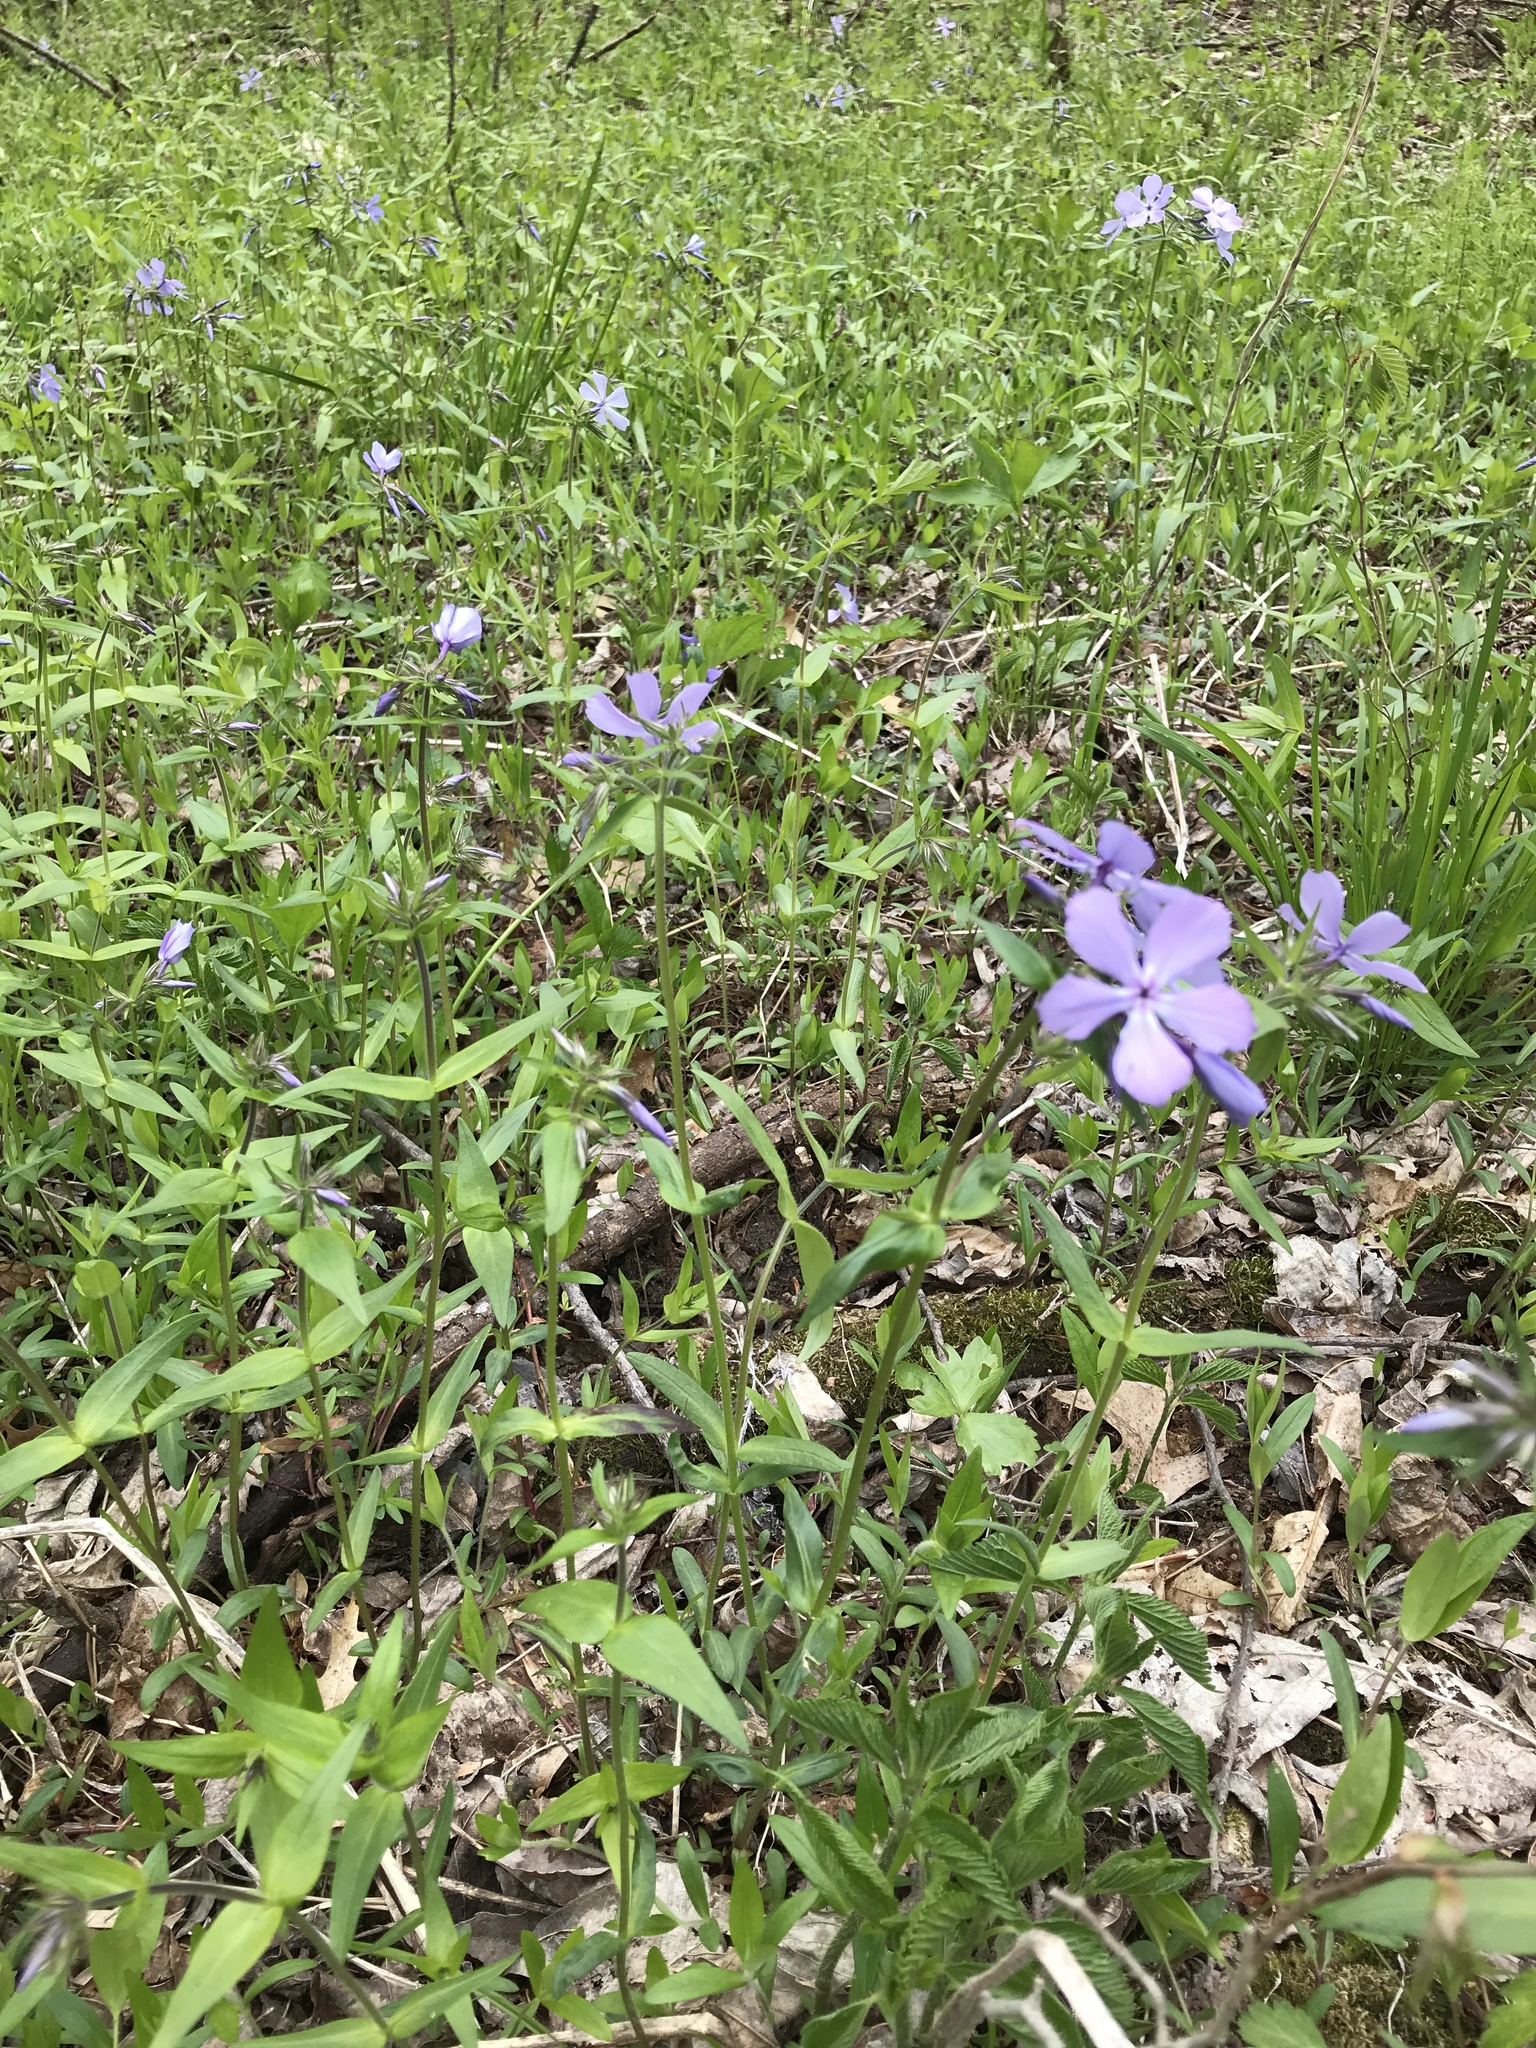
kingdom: Plantae
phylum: Tracheophyta
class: Magnoliopsida
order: Ericales
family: Polemoniaceae
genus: Phlox
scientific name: Phlox divaricata
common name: Blue phlox
